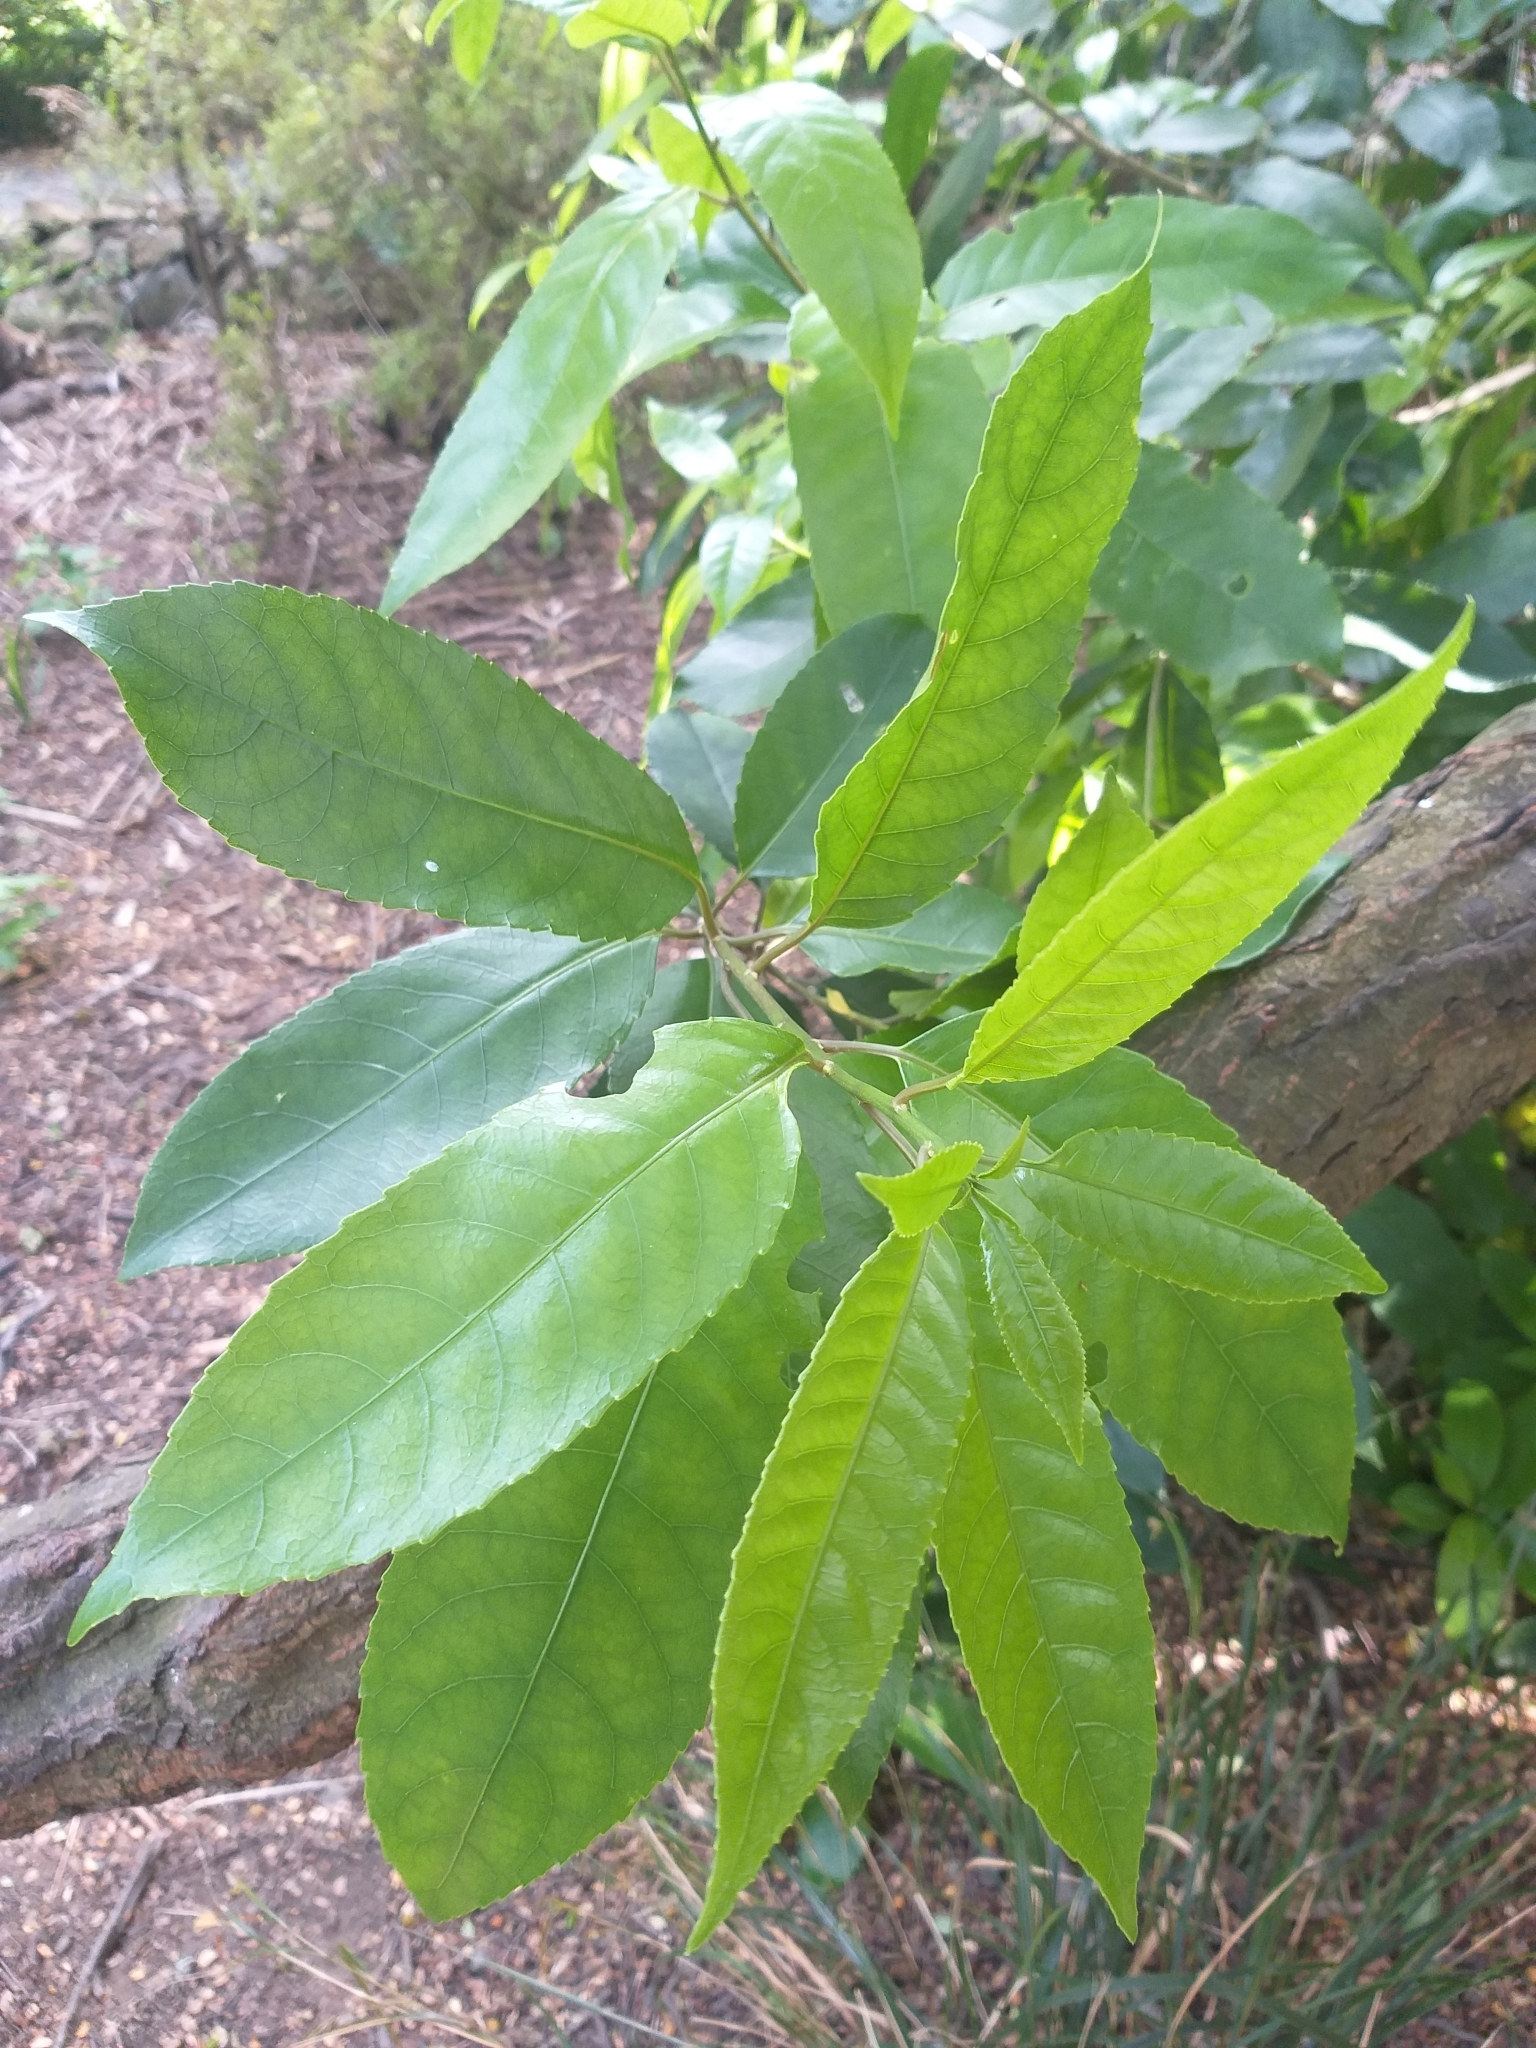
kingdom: Plantae
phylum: Tracheophyta
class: Magnoliopsida
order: Malpighiales
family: Violaceae
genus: Melicytus
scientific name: Melicytus ramiflorus
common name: Mahoe
